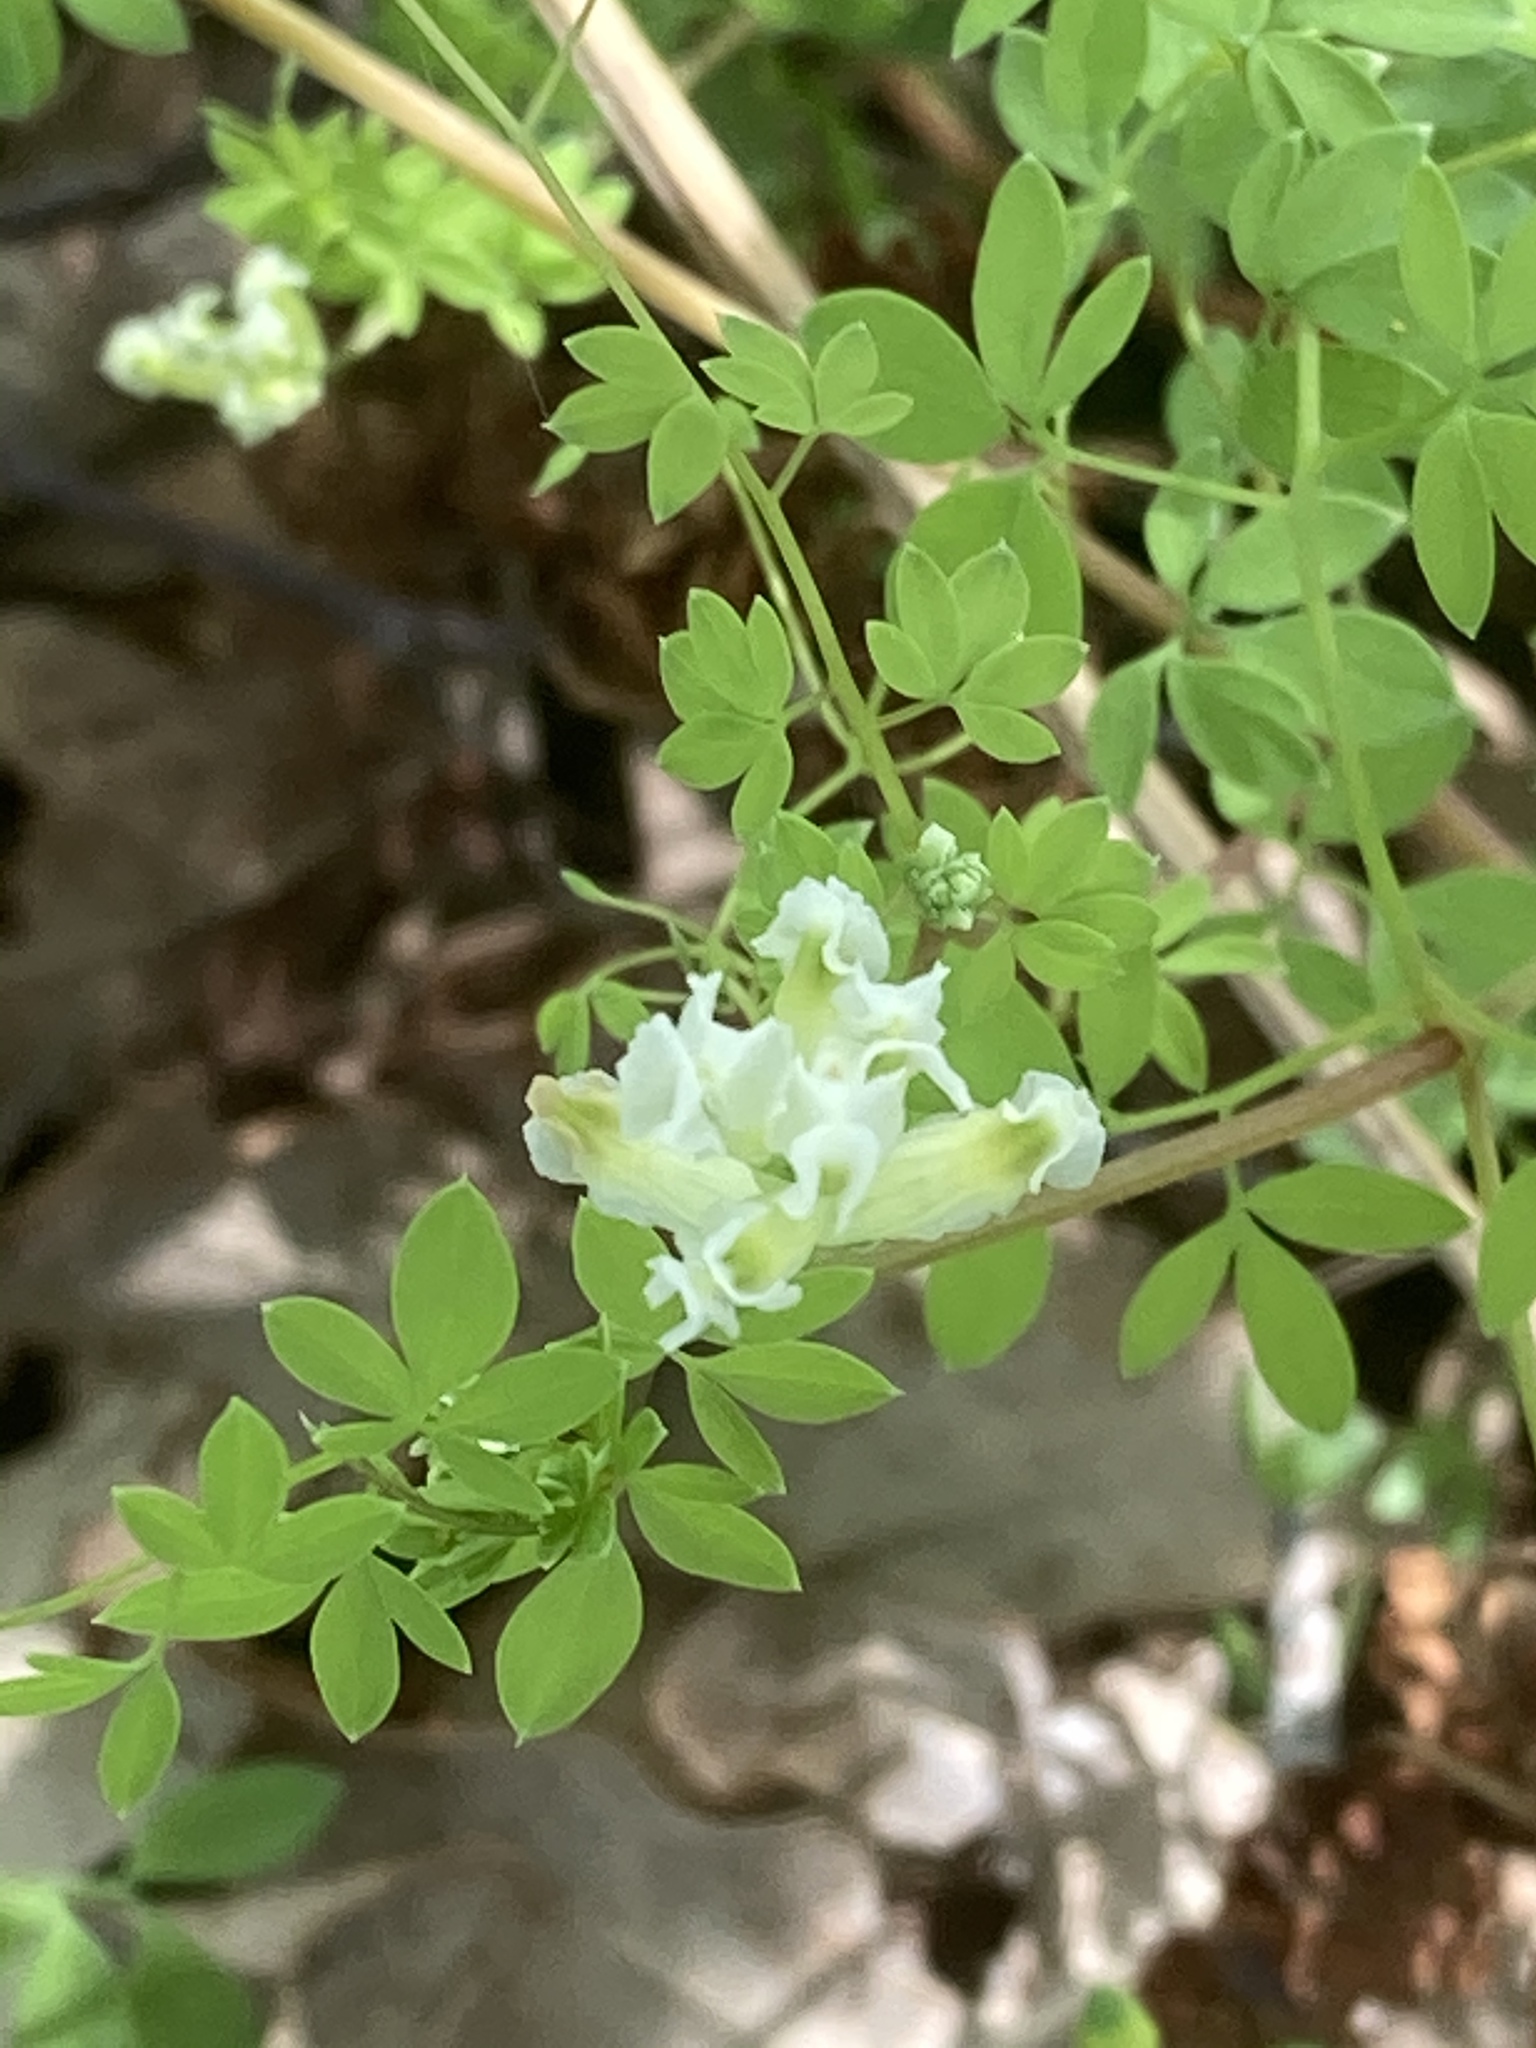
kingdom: Plantae
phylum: Tracheophyta
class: Magnoliopsida
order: Ranunculales
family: Papaveraceae
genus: Ceratocapnos
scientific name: Ceratocapnos claviculata
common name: Climbing corydalis
